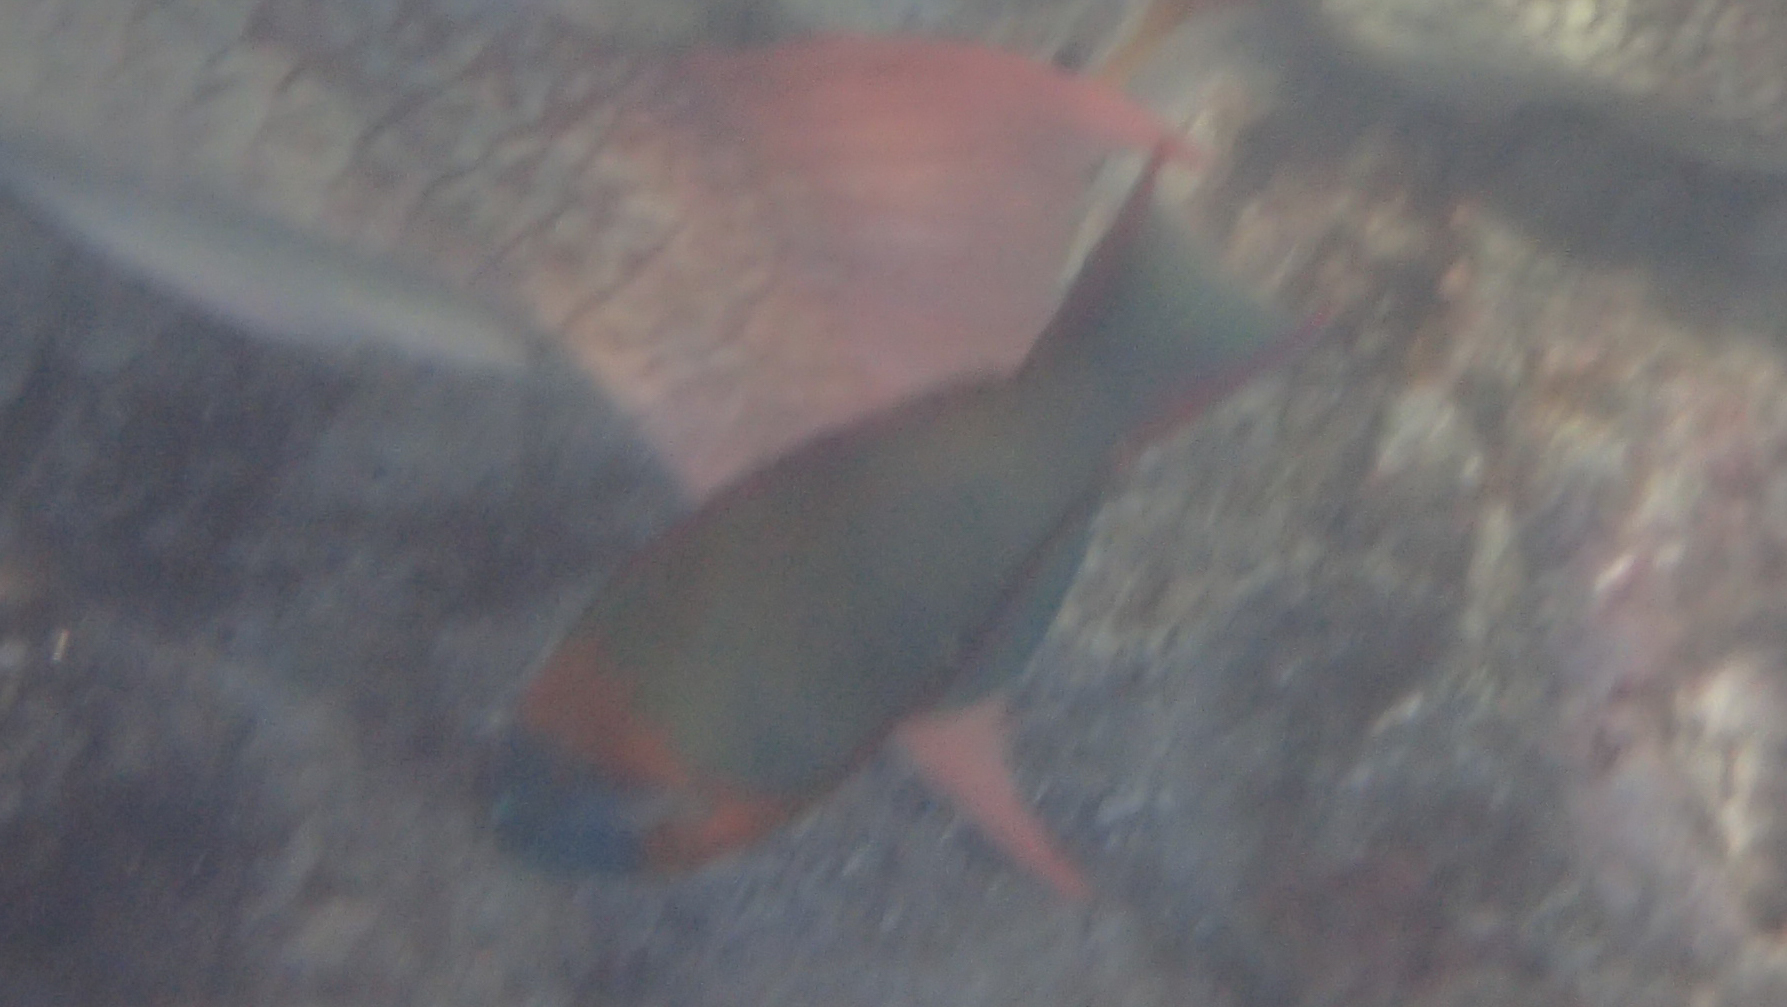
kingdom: Animalia
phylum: Chordata
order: Perciformes
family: Labridae
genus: Thalassoma
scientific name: Thalassoma duperrey
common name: Saddle wrasse
